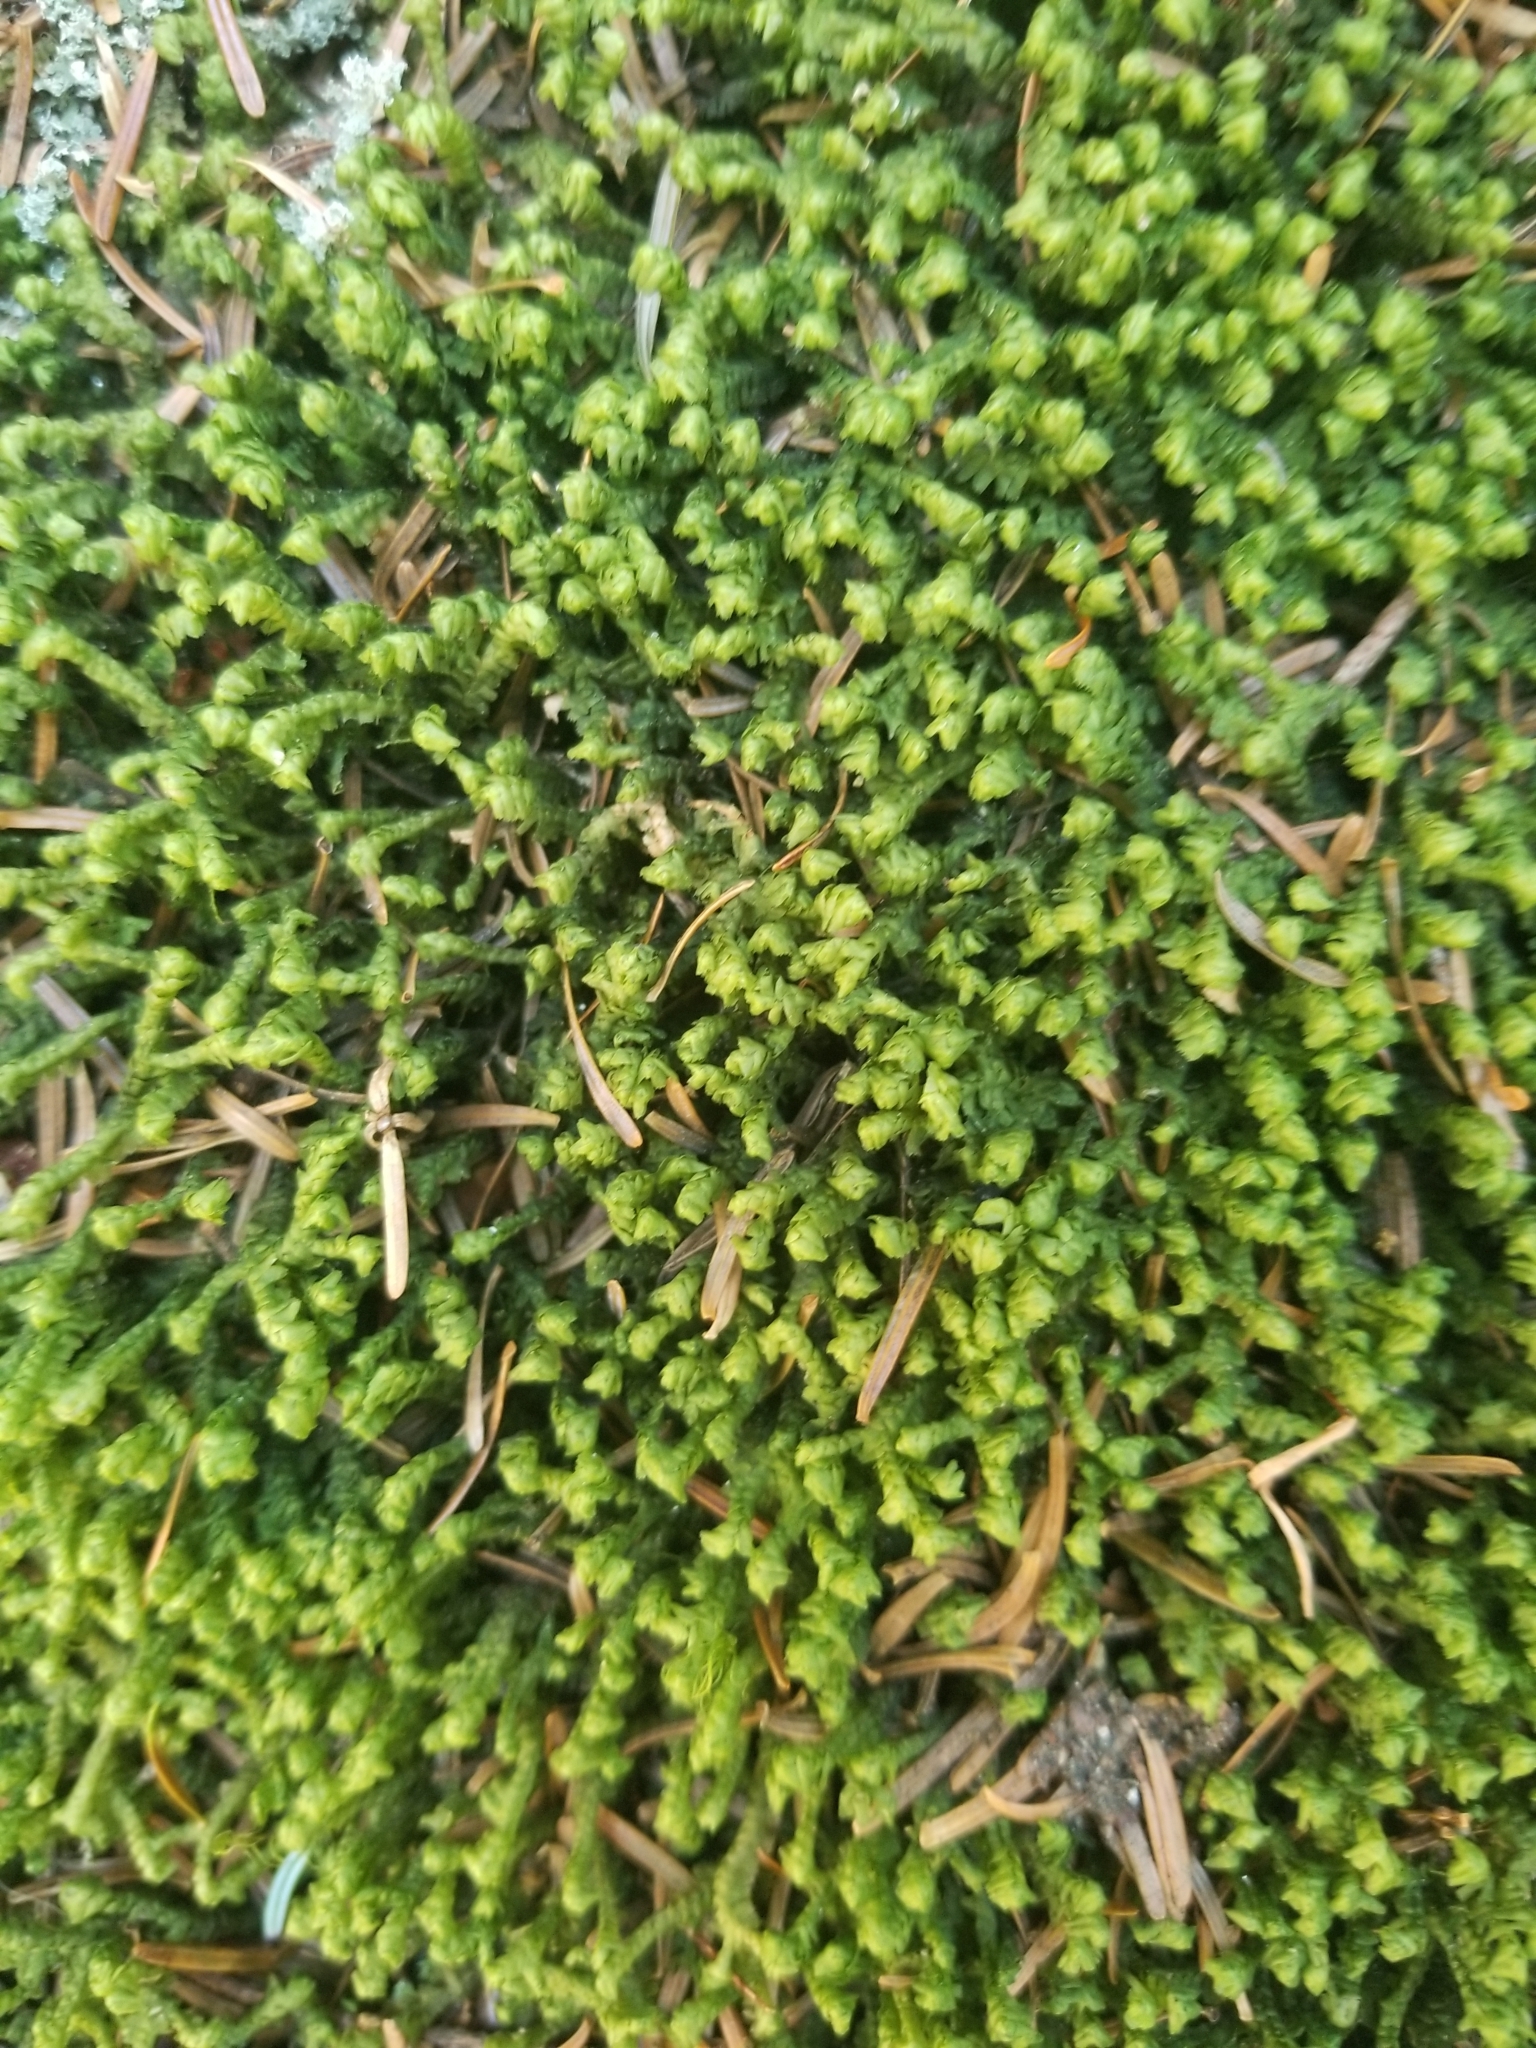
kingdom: Plantae
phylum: Marchantiophyta
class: Jungermanniopsida
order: Jungermanniales
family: Lepidoziaceae
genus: Bazzania
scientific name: Bazzania trilobata
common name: Three-lobed whipwort
